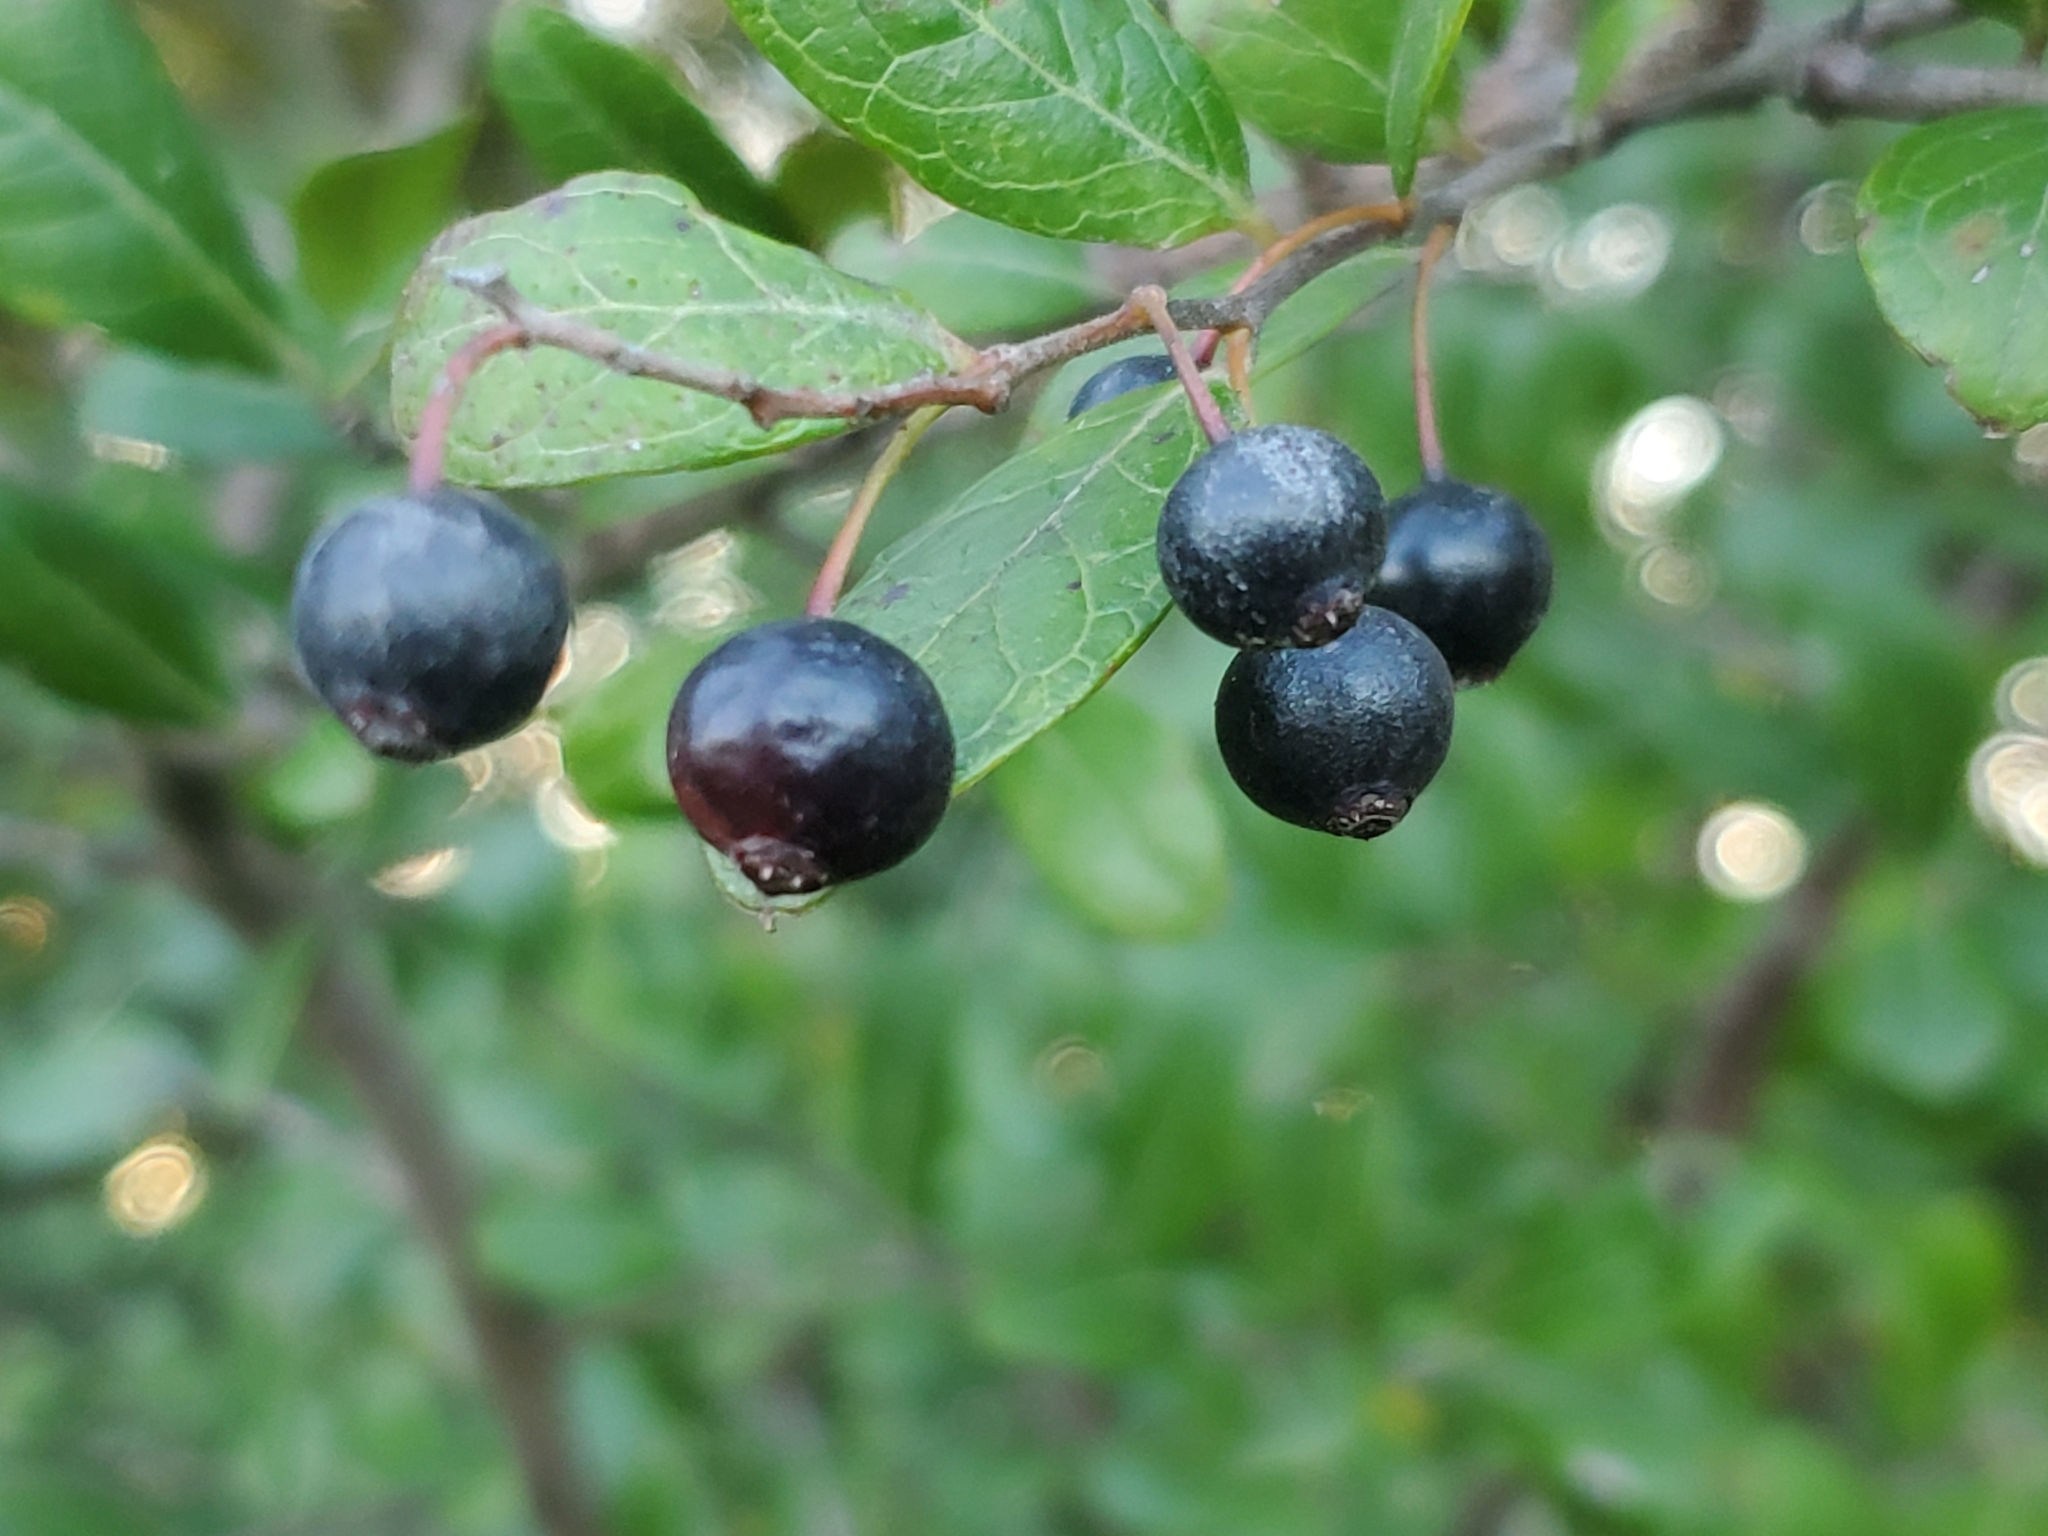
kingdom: Plantae
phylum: Tracheophyta
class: Magnoliopsida
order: Ericales
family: Ericaceae
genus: Vaccinium
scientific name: Vaccinium arboreum
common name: Farkleberry
